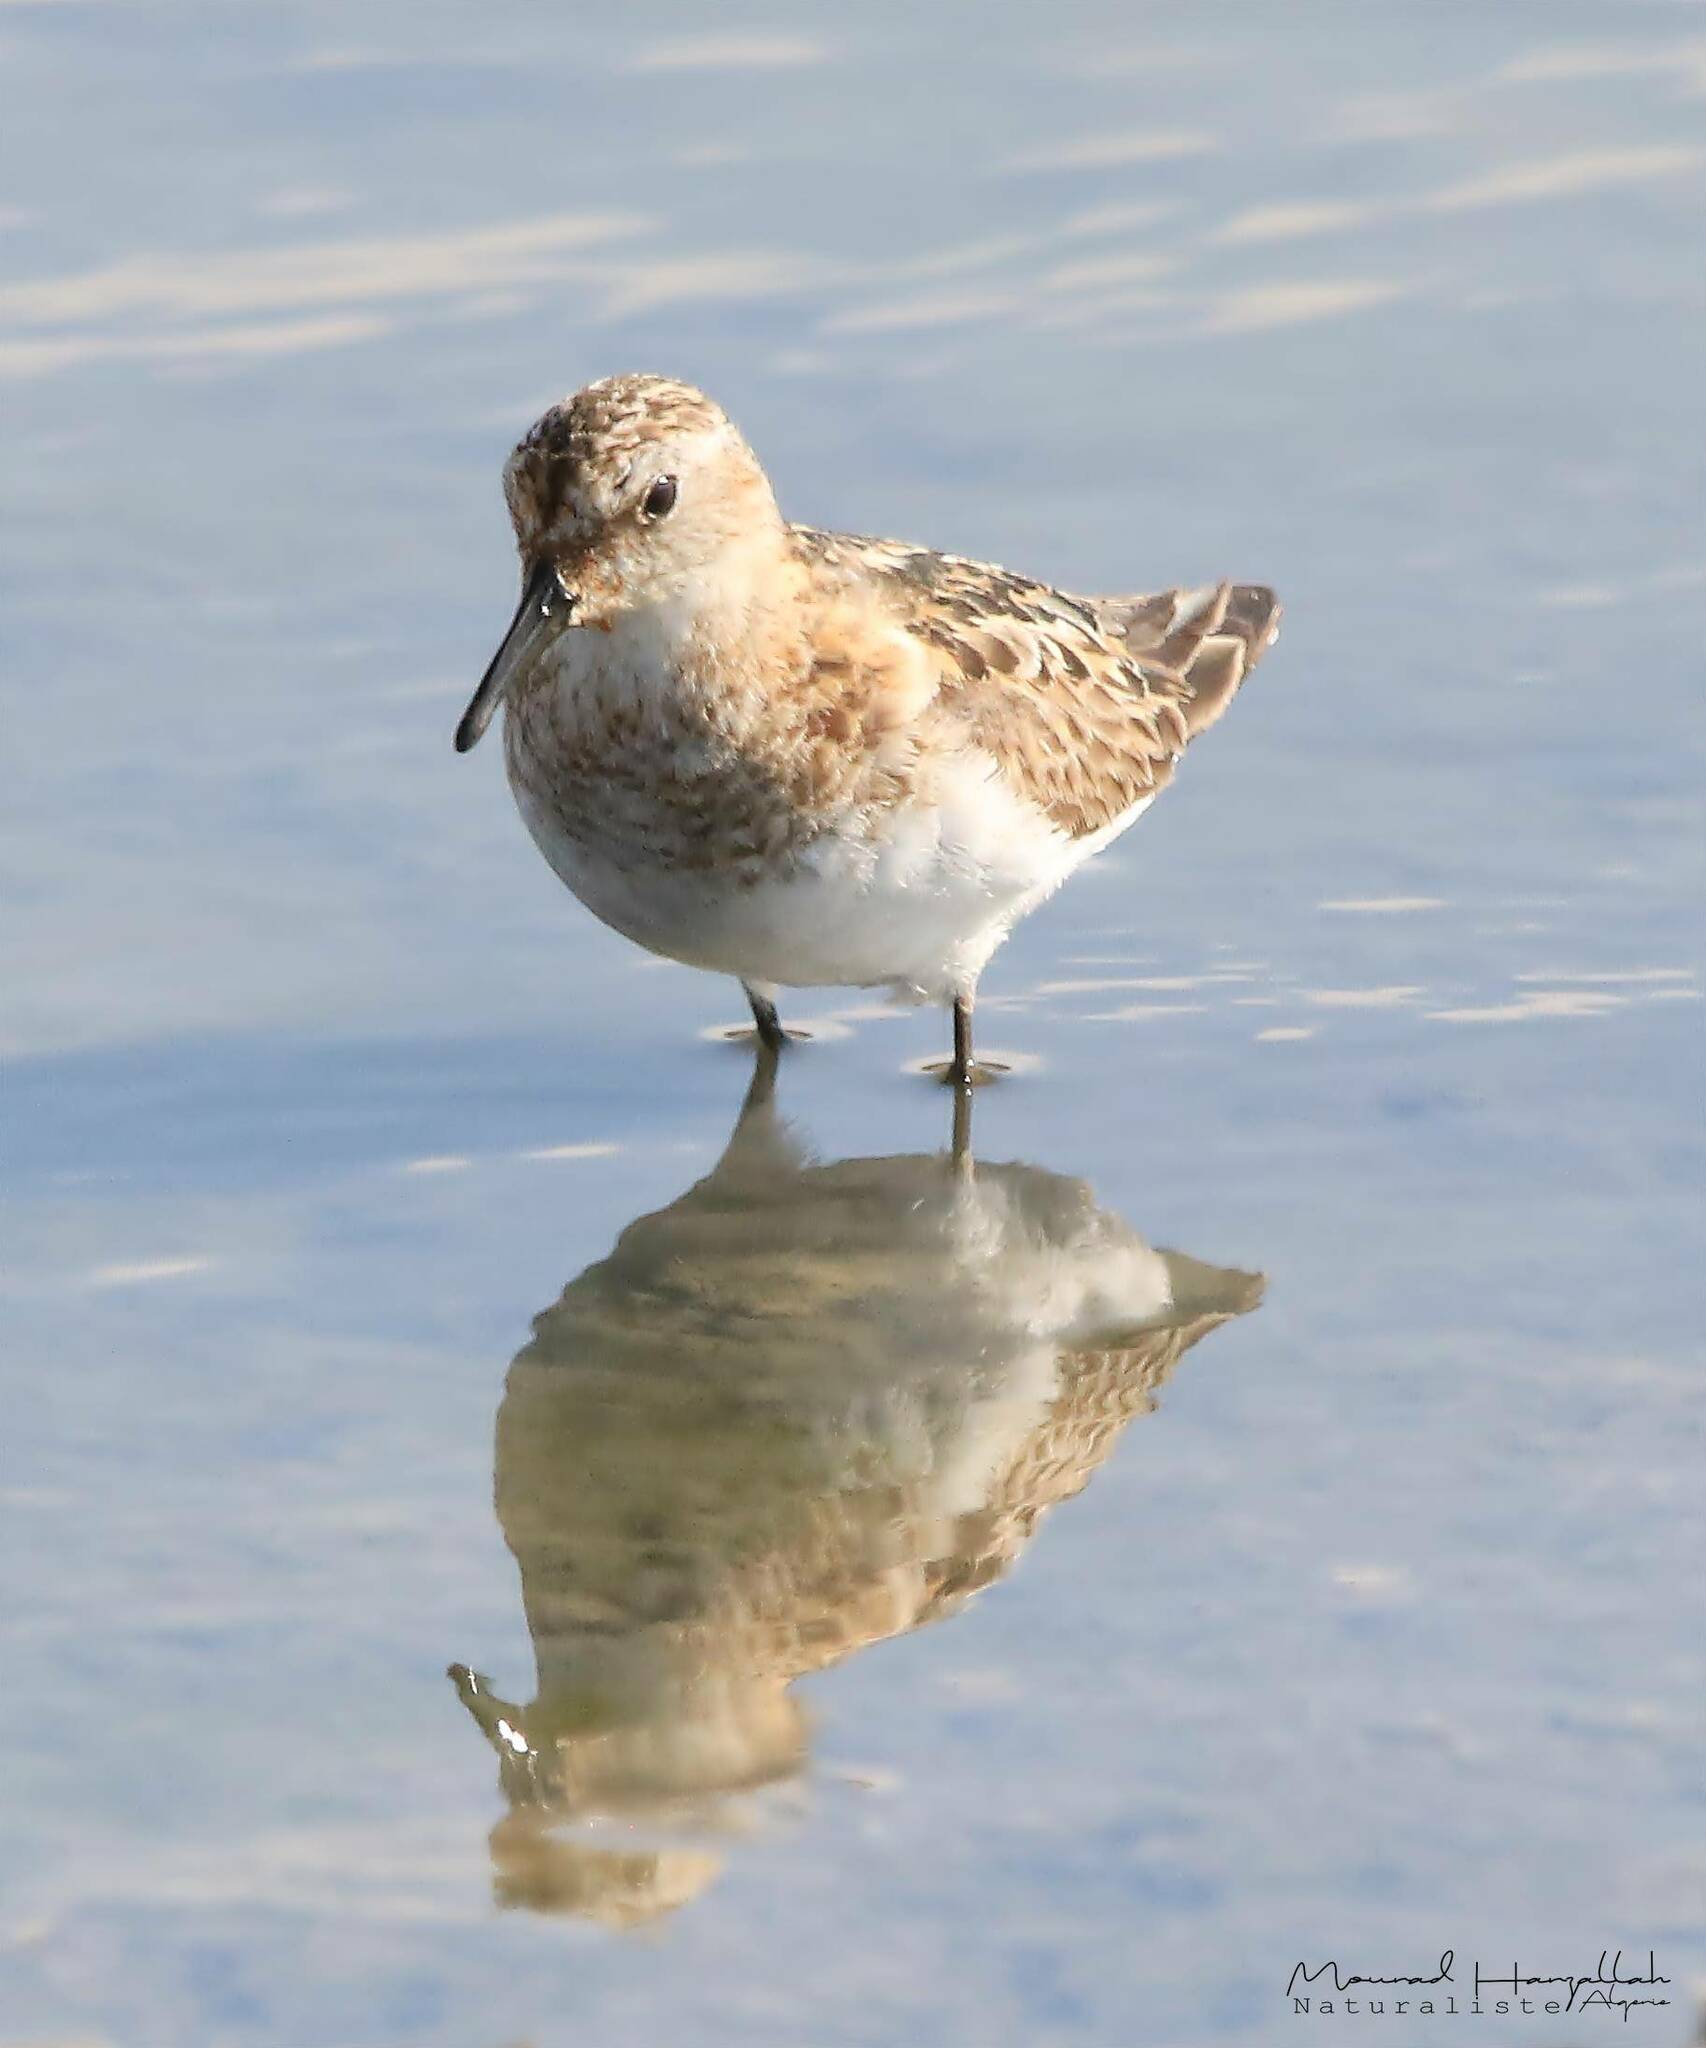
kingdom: Animalia
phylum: Chordata
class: Aves
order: Charadriiformes
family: Scolopacidae
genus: Calidris
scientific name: Calidris minuta
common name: Little stint
